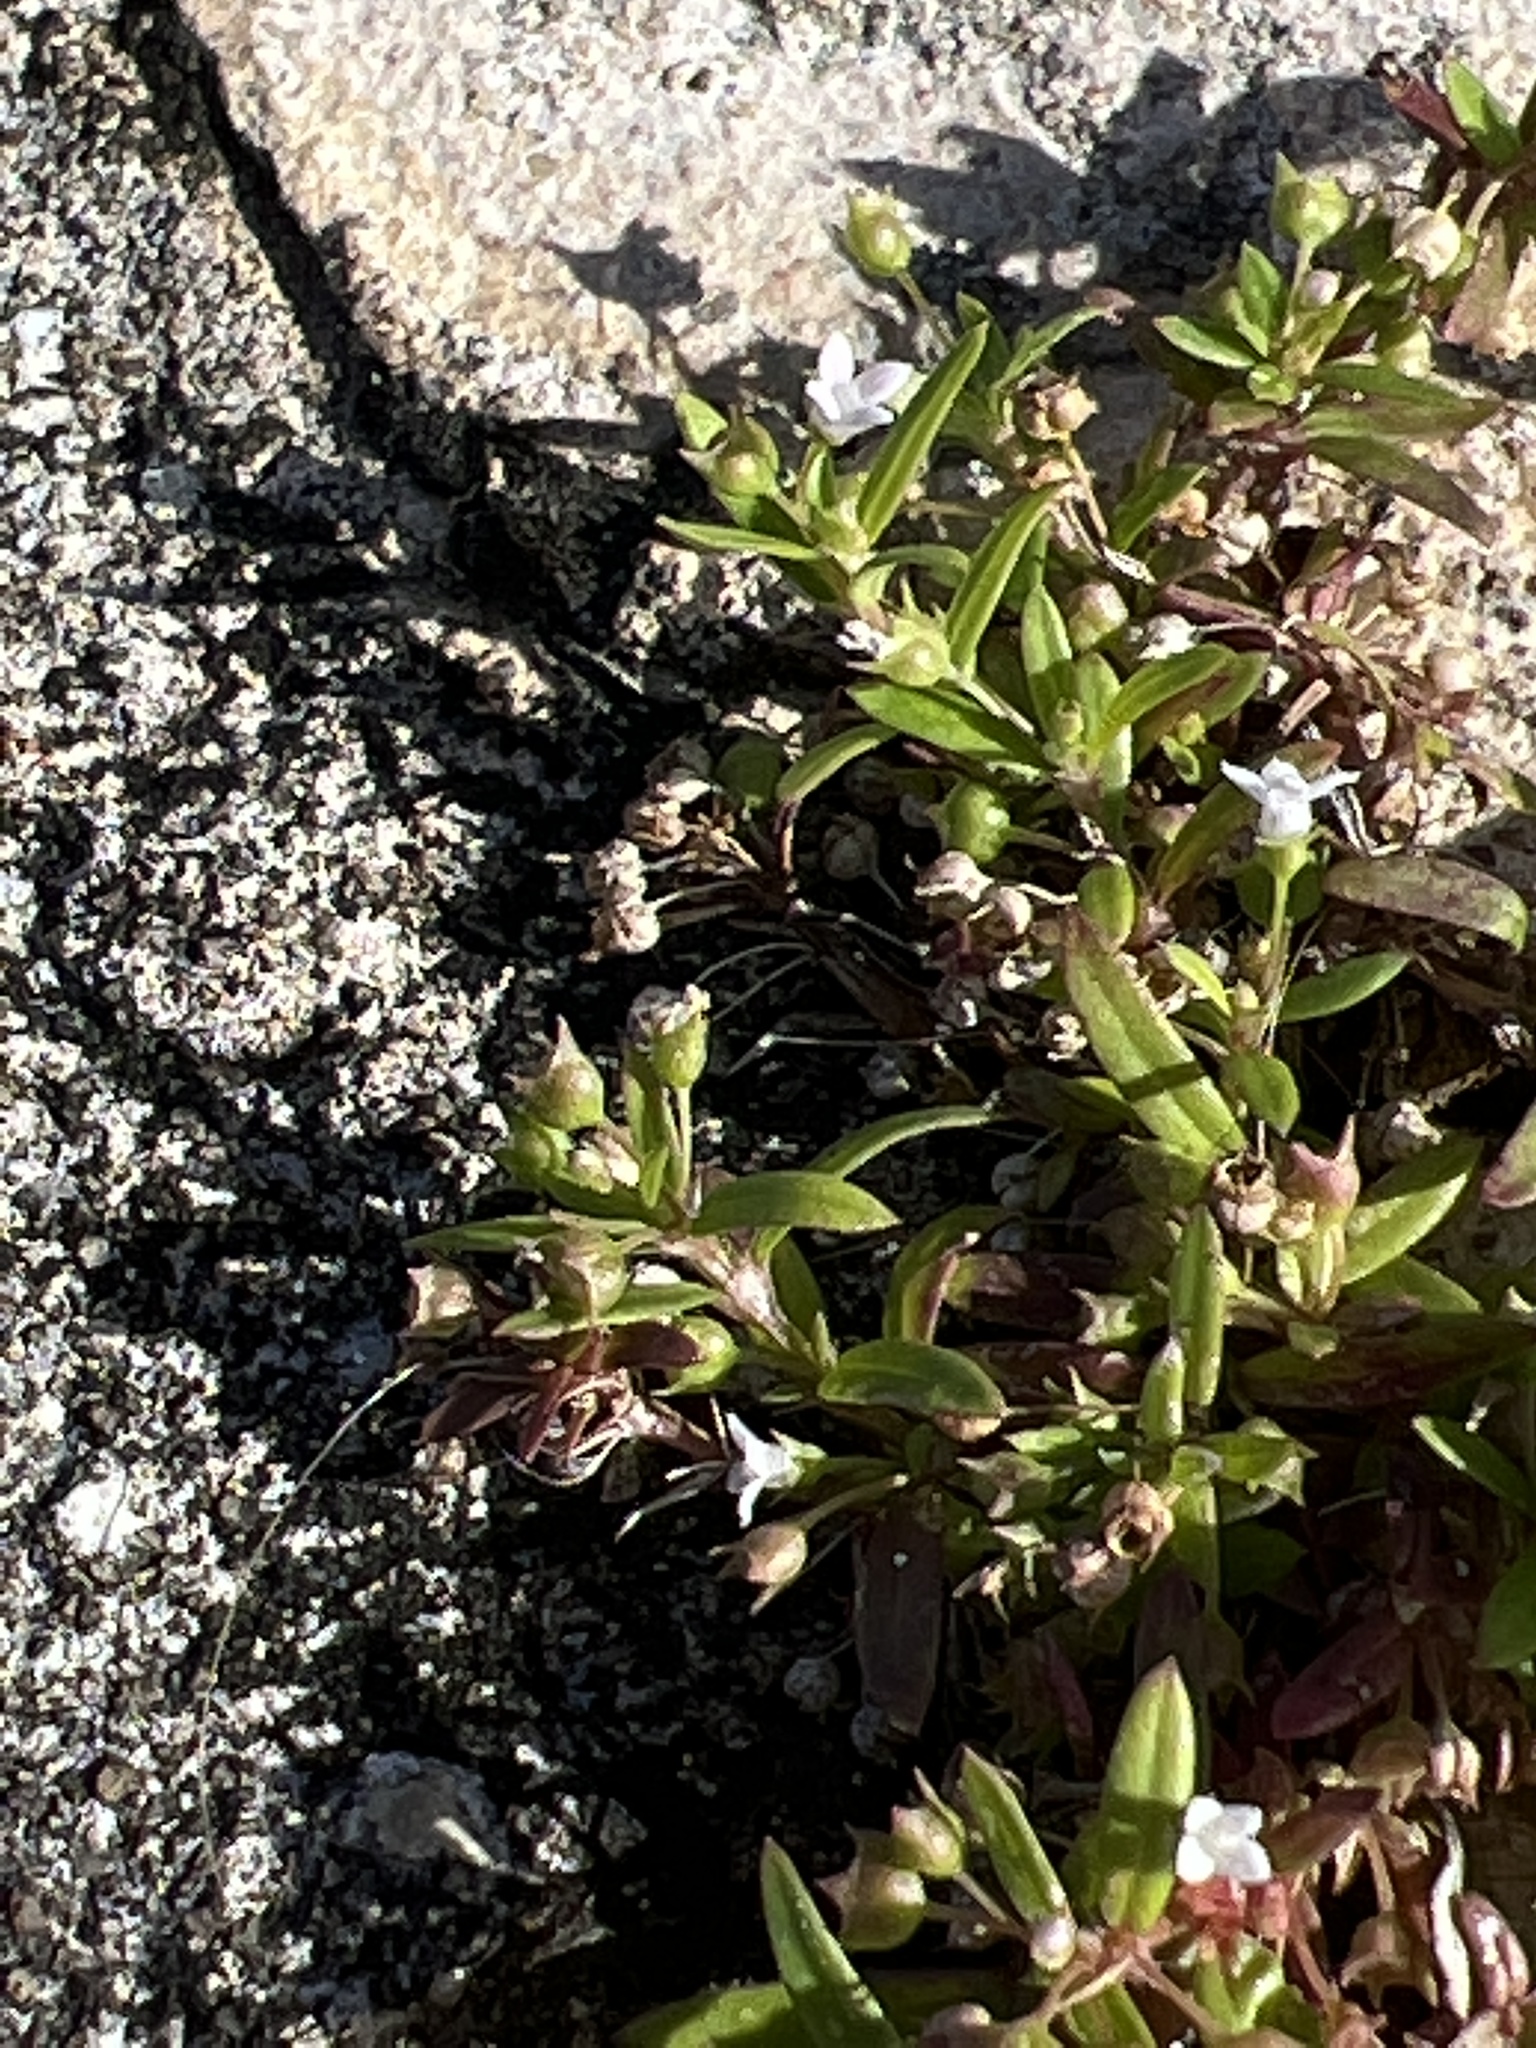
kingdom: Plantae
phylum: Tracheophyta
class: Magnoliopsida
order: Gentianales
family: Rubiaceae
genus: Oldenlandia
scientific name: Oldenlandia corymbosa
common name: Flat-top mille graines
